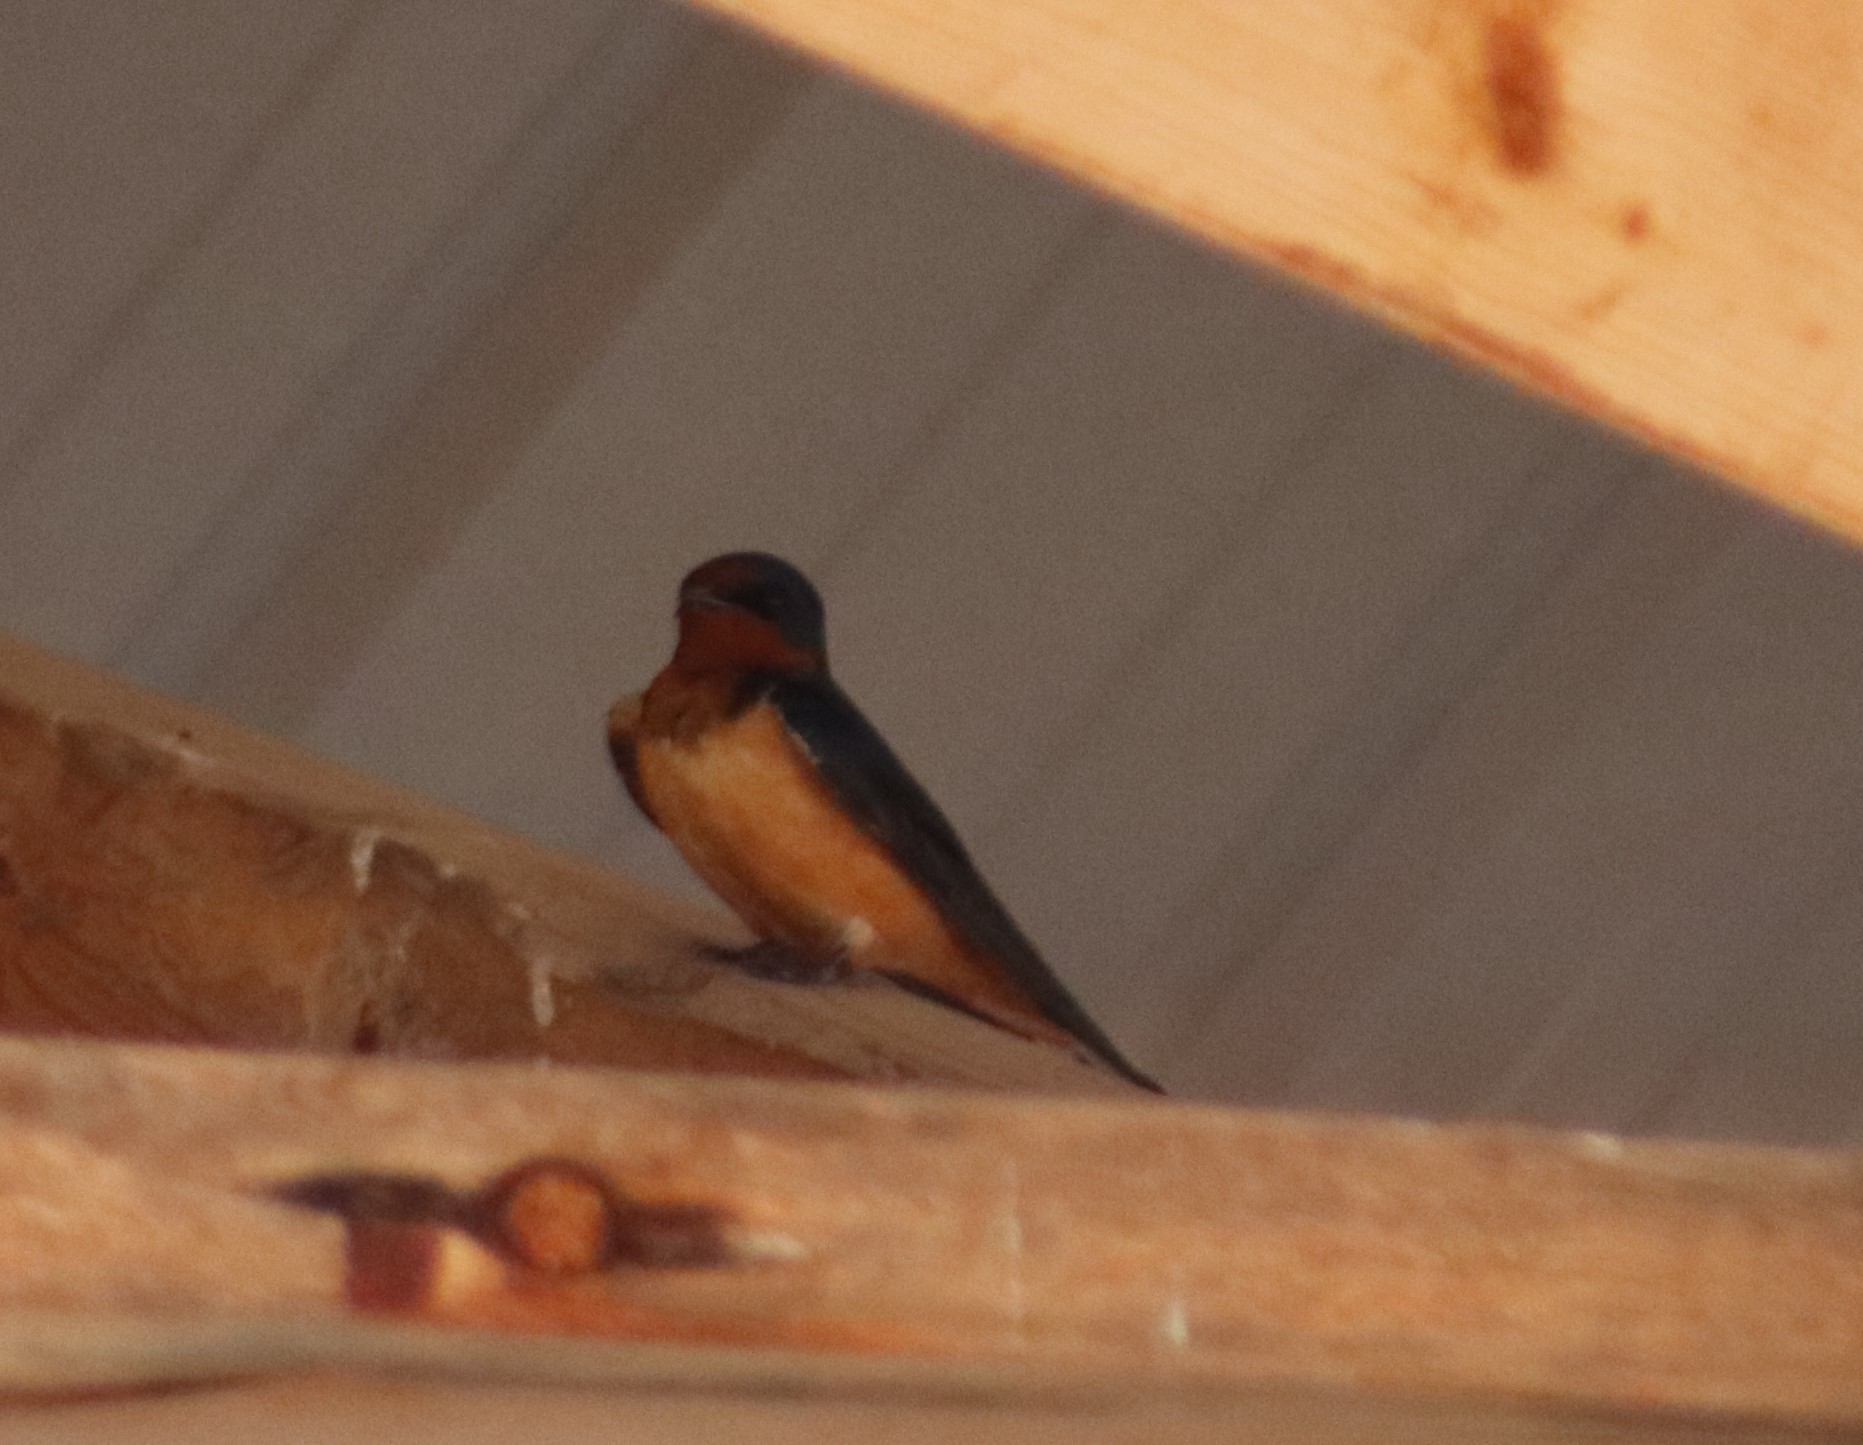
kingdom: Animalia
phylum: Chordata
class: Aves
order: Passeriformes
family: Hirundinidae
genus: Hirundo
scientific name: Hirundo rustica
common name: Barn swallow
